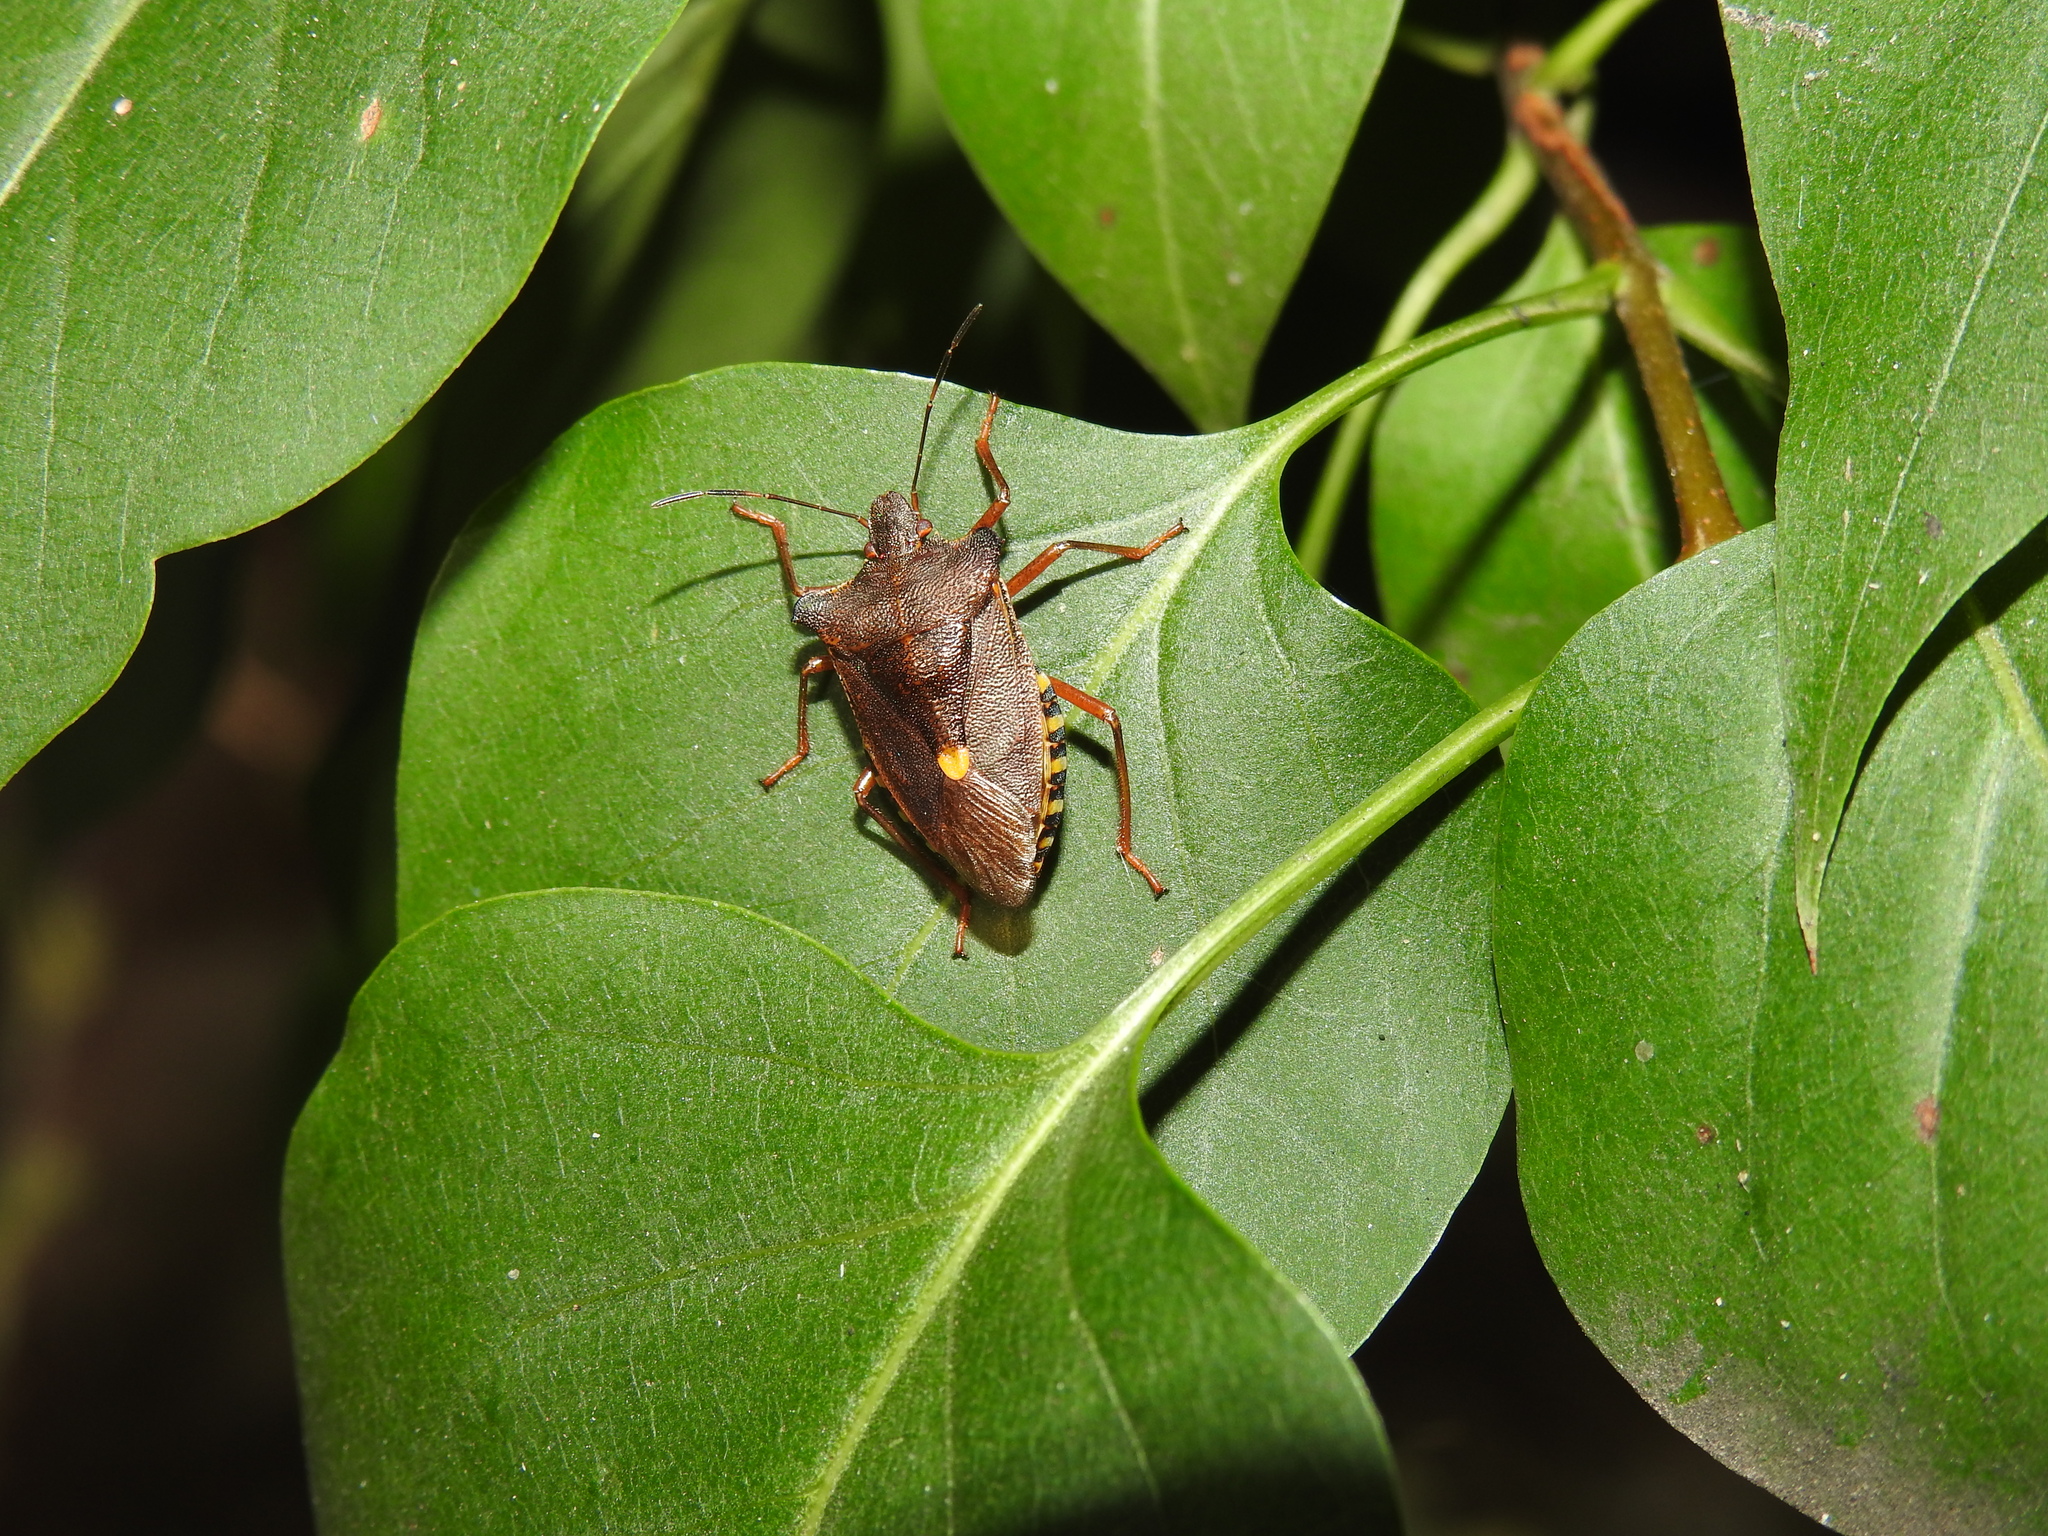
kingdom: Animalia
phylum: Arthropoda
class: Insecta
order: Hemiptera
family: Pentatomidae
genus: Pentatoma
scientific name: Pentatoma rufipes
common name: Forest bug
